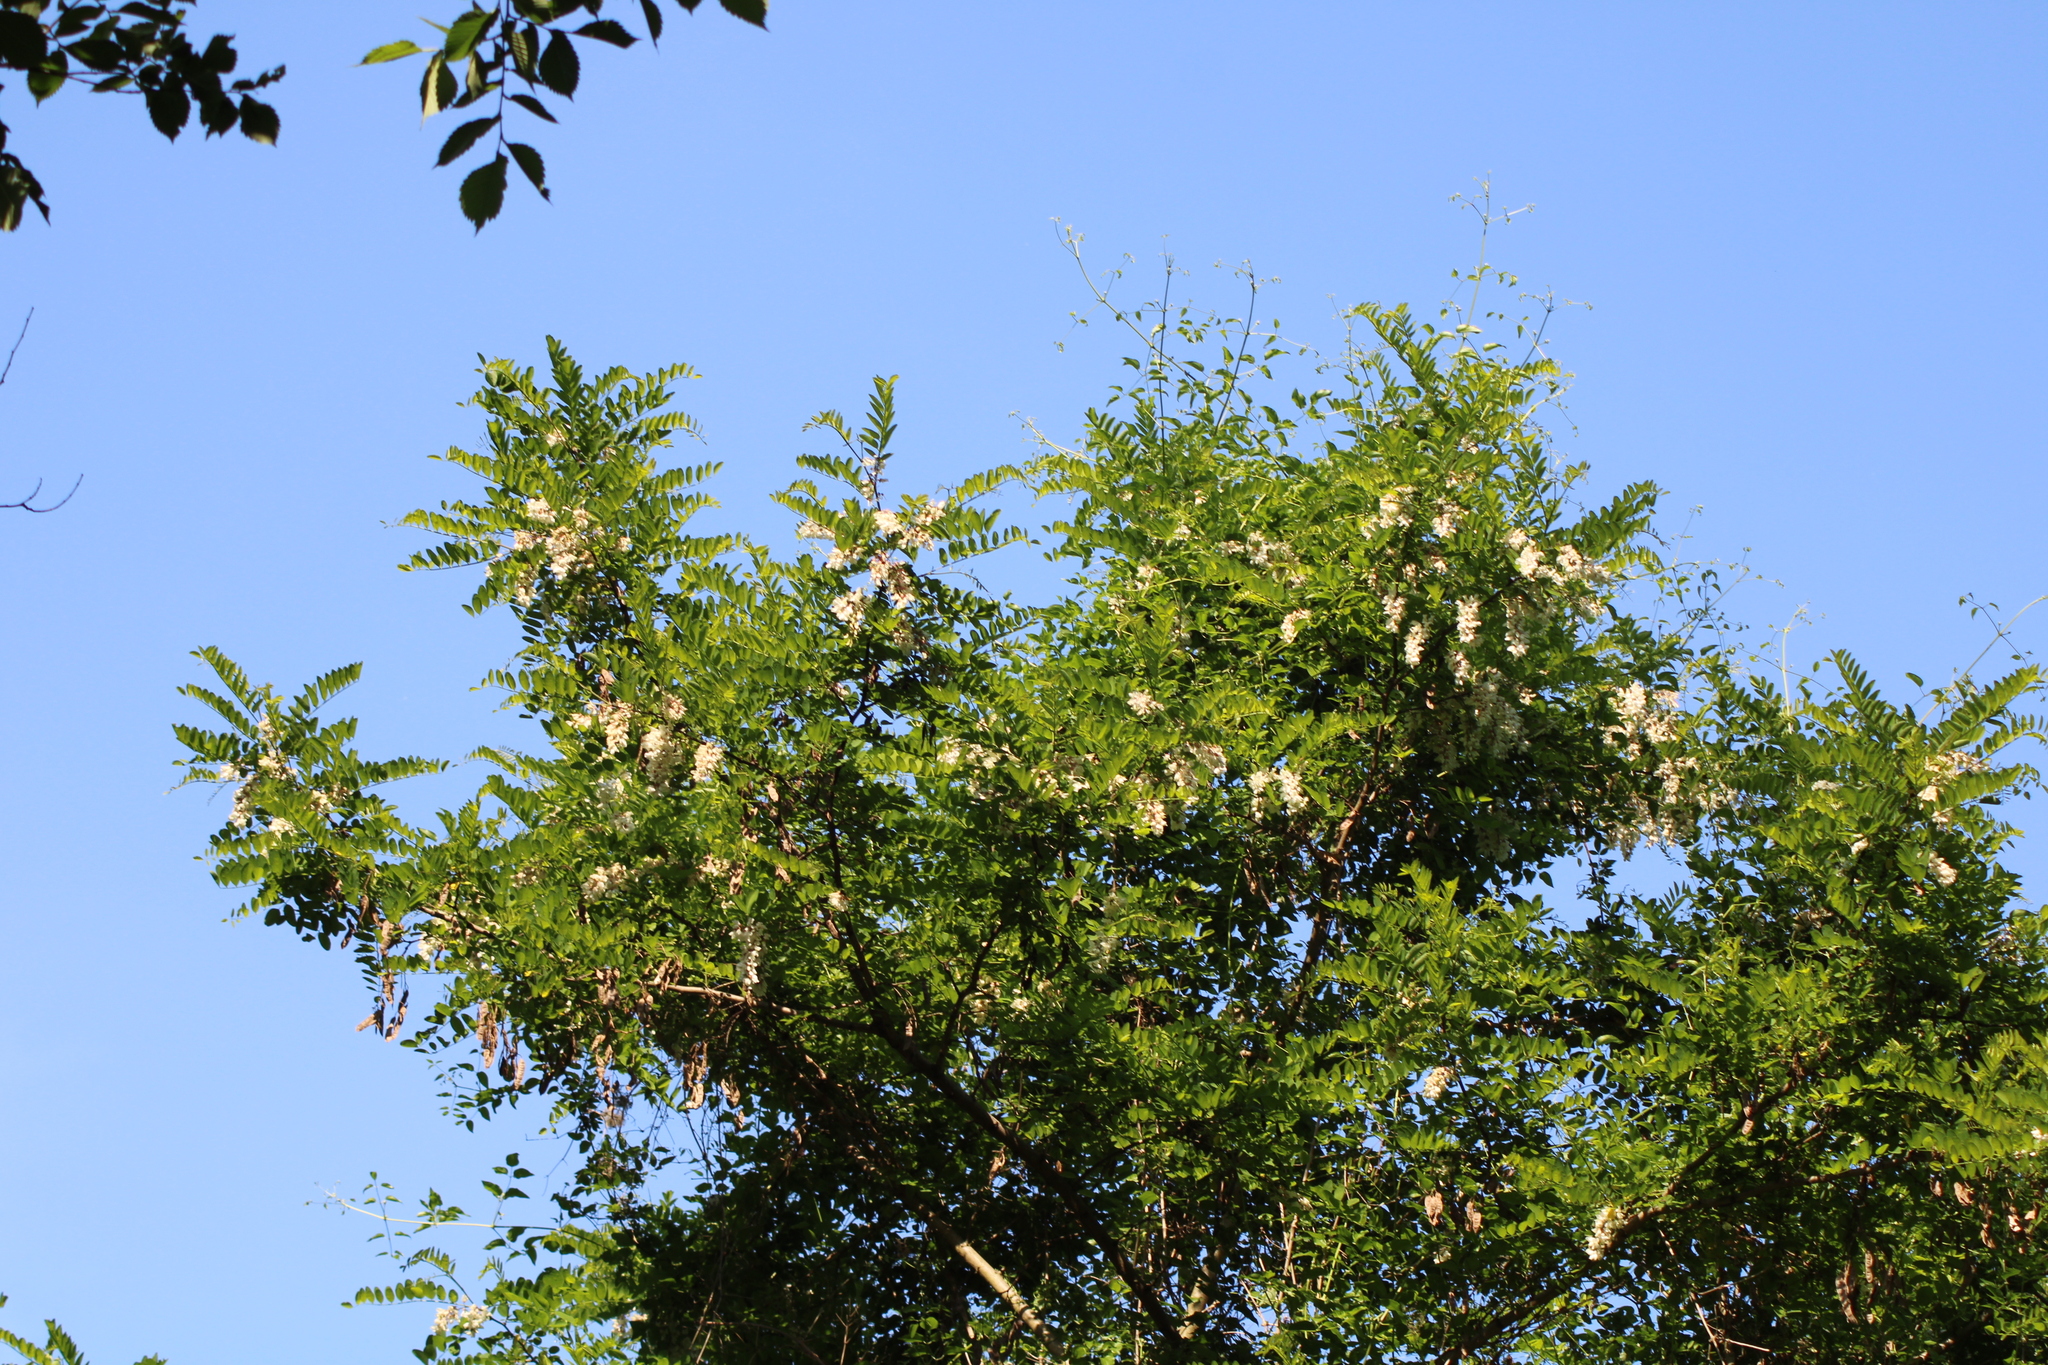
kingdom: Plantae
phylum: Tracheophyta
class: Magnoliopsida
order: Fabales
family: Fabaceae
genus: Robinia
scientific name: Robinia pseudoacacia
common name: Black locust
